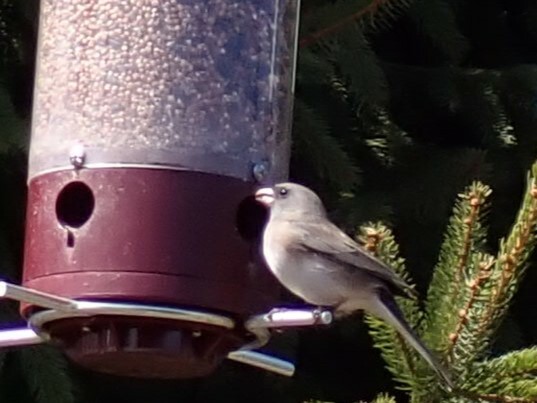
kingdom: Animalia
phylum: Chordata
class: Aves
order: Passeriformes
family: Passerellidae
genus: Junco
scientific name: Junco hyemalis
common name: Dark-eyed junco
